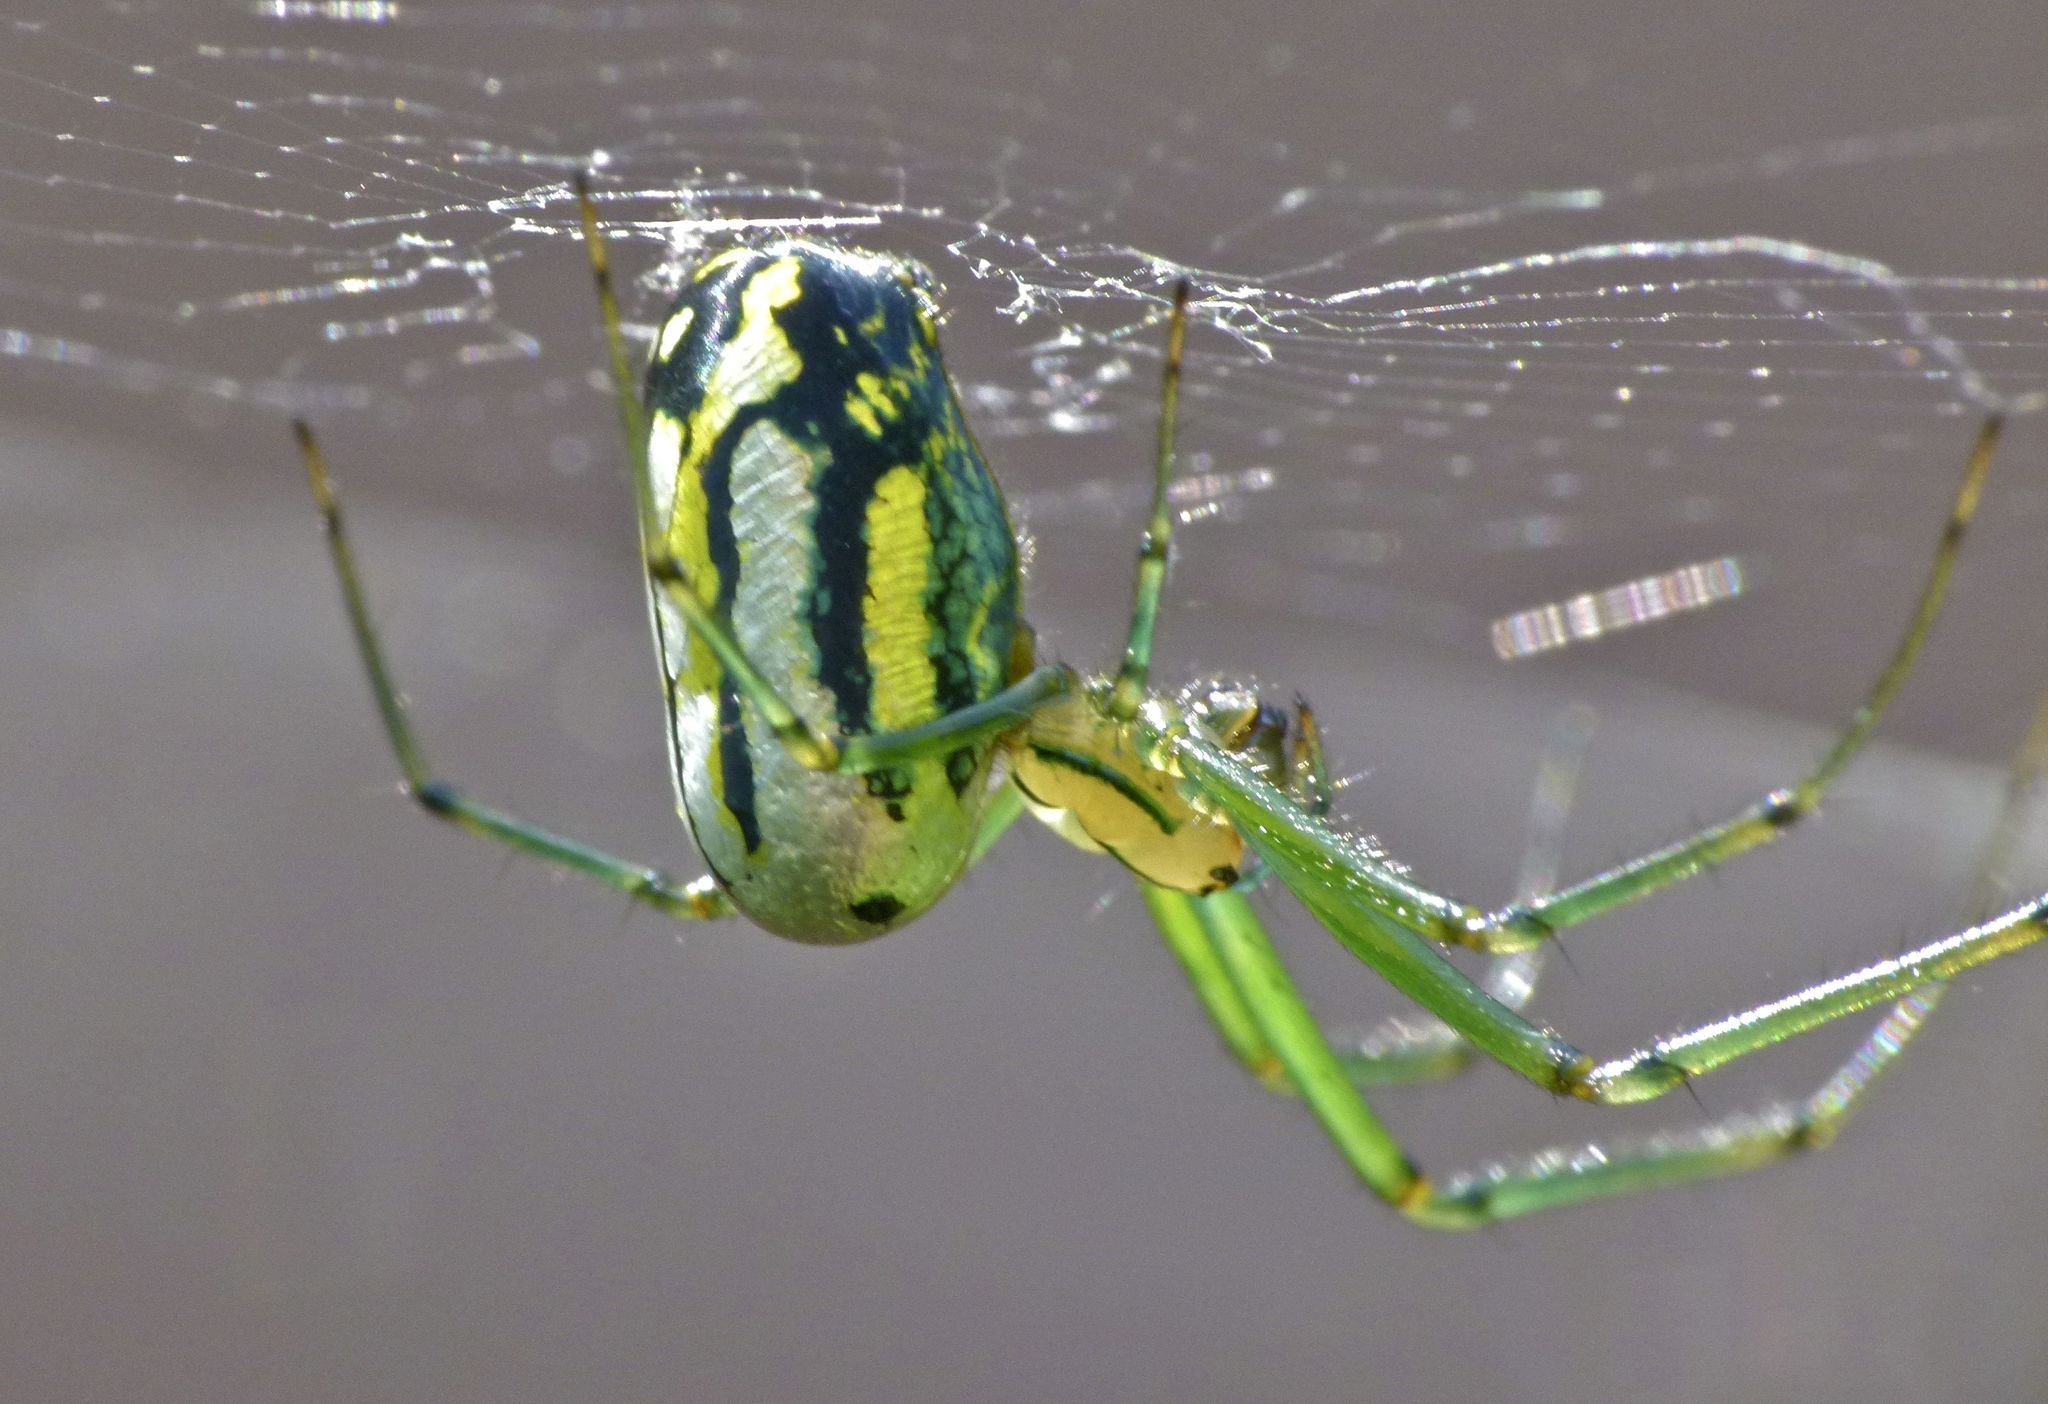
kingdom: Animalia
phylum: Arthropoda
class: Arachnida
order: Araneae
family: Tetragnathidae
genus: Leucauge
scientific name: Leucauge venusta
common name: Longjawed orb weavers
